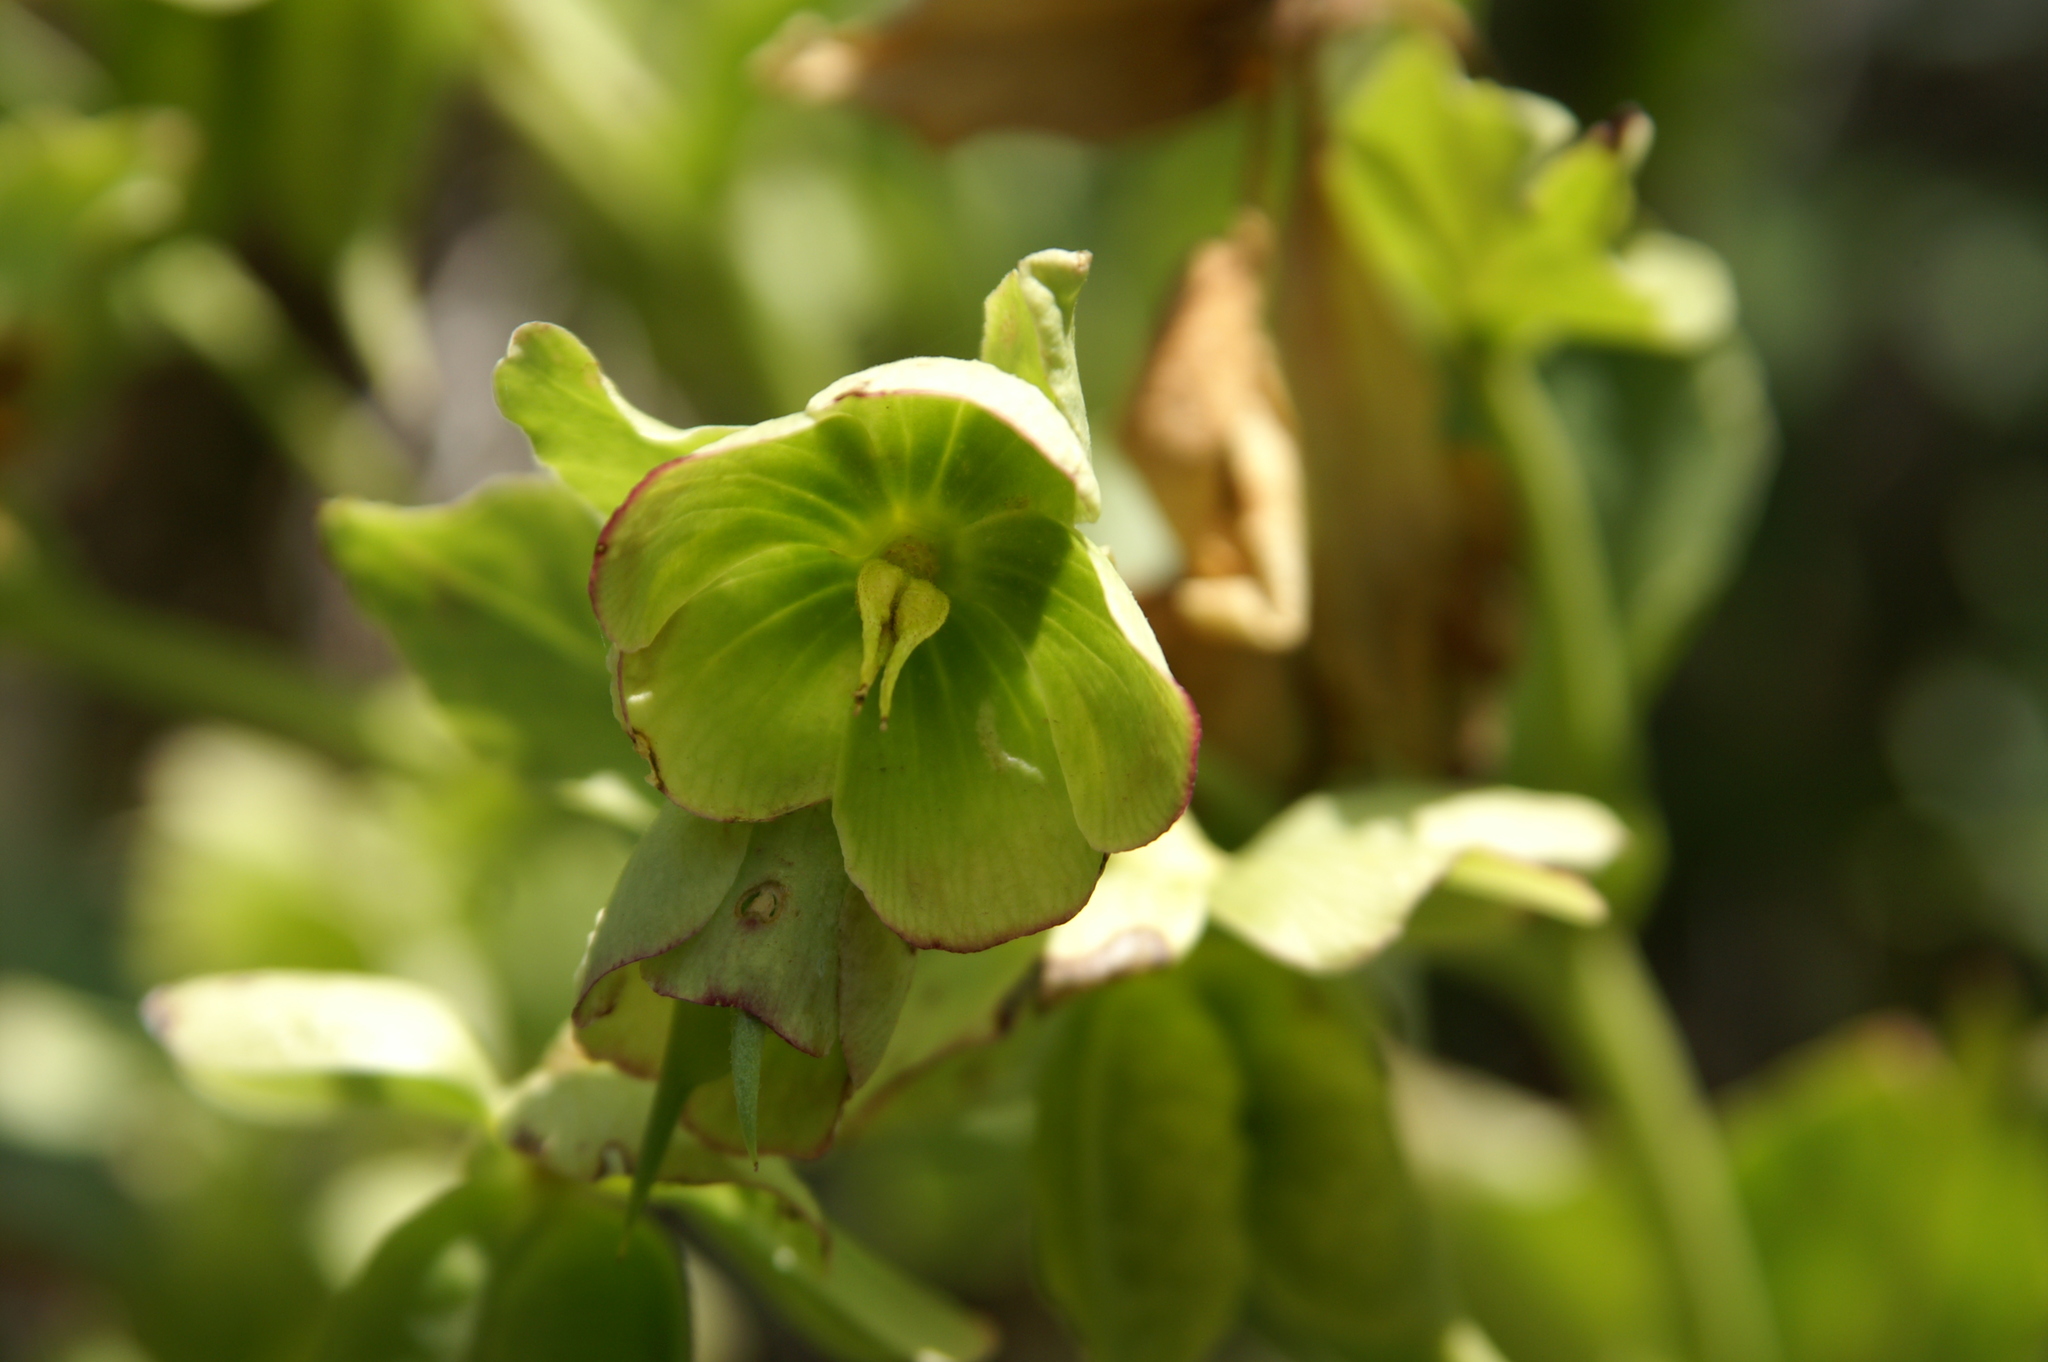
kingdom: Plantae
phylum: Tracheophyta
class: Magnoliopsida
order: Ranunculales
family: Ranunculaceae
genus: Helleborus
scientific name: Helleborus foetidus
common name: Stinking hellebore
